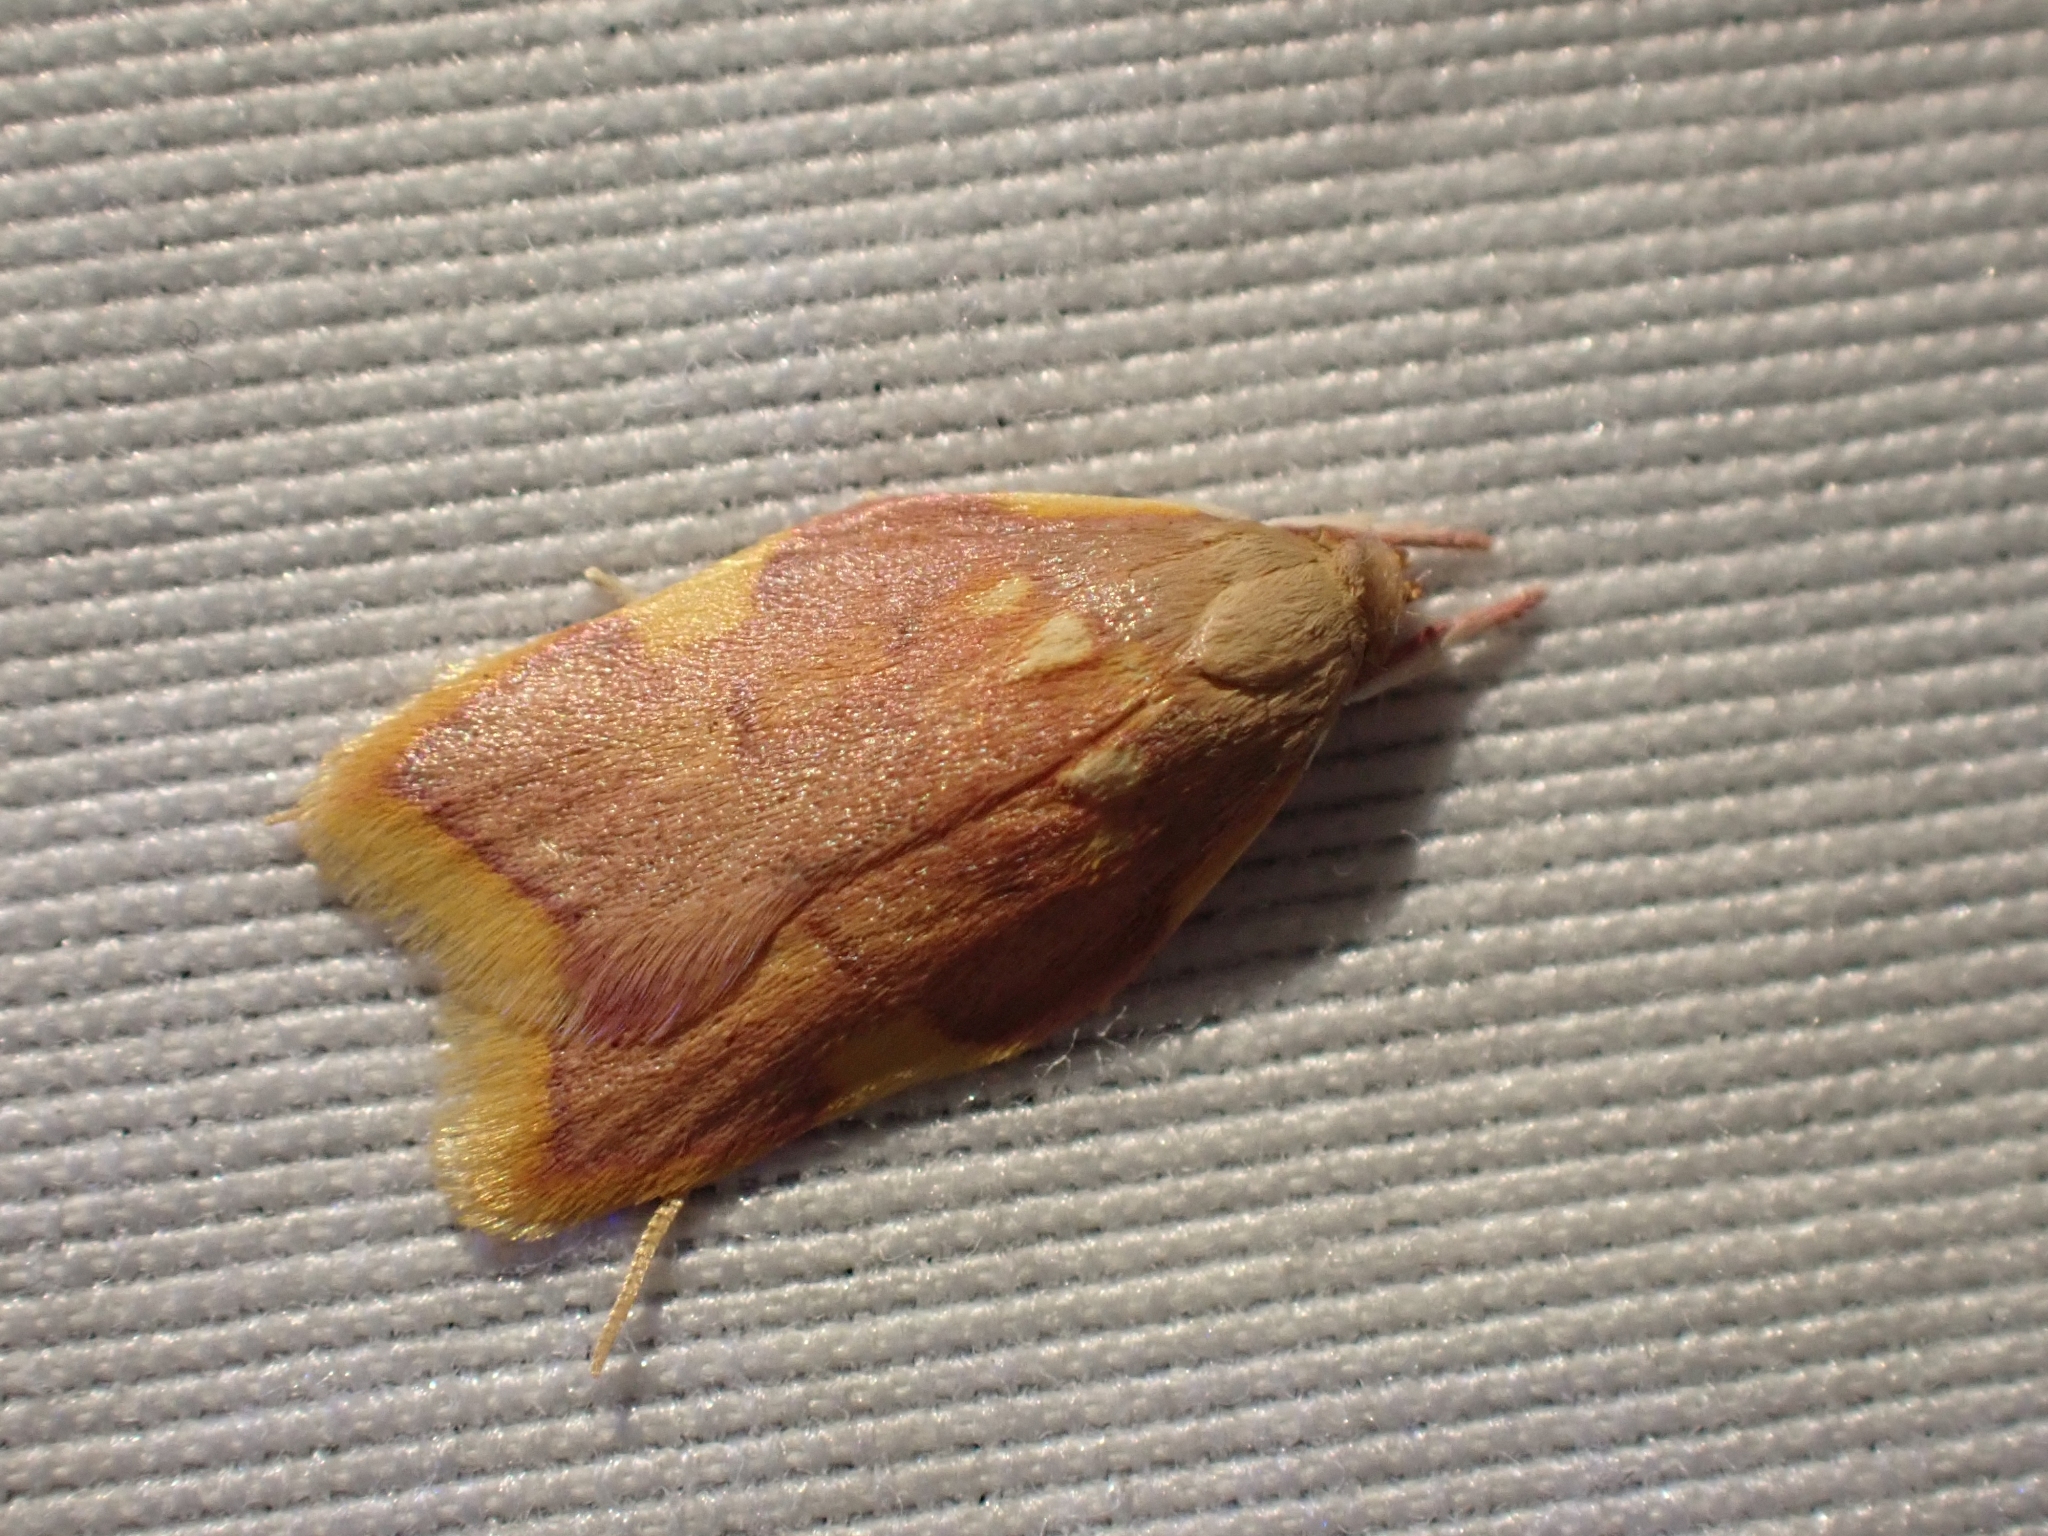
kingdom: Animalia
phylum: Arthropoda
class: Insecta
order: Lepidoptera
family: Peleopodidae
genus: Carcina
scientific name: Carcina quercana
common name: Moth
